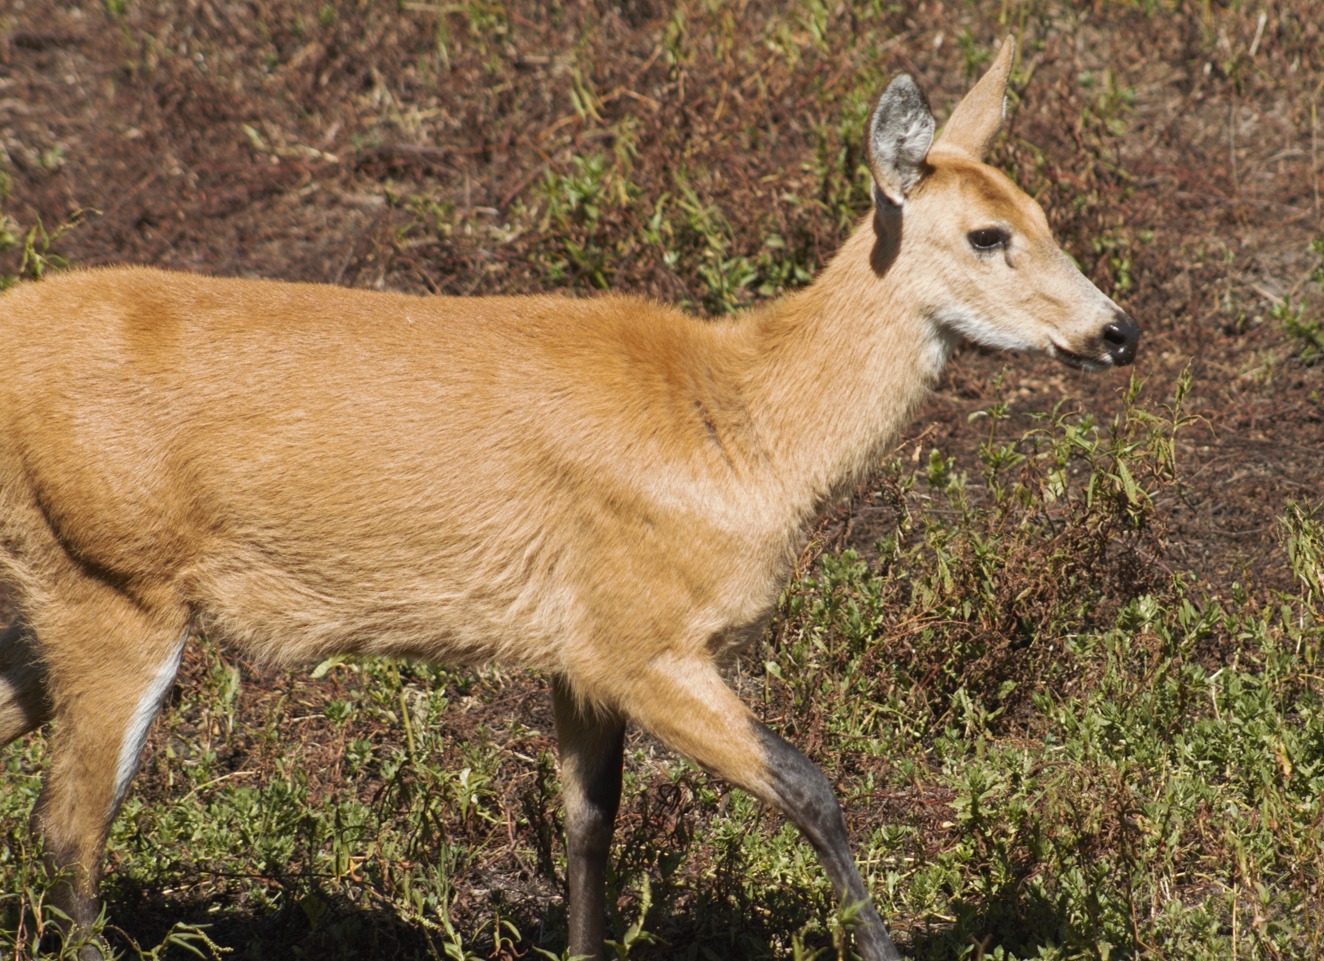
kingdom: Animalia
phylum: Chordata
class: Mammalia
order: Artiodactyla
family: Cervidae
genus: Blastocerus
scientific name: Blastocerus dichotomus
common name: Marsh deer
